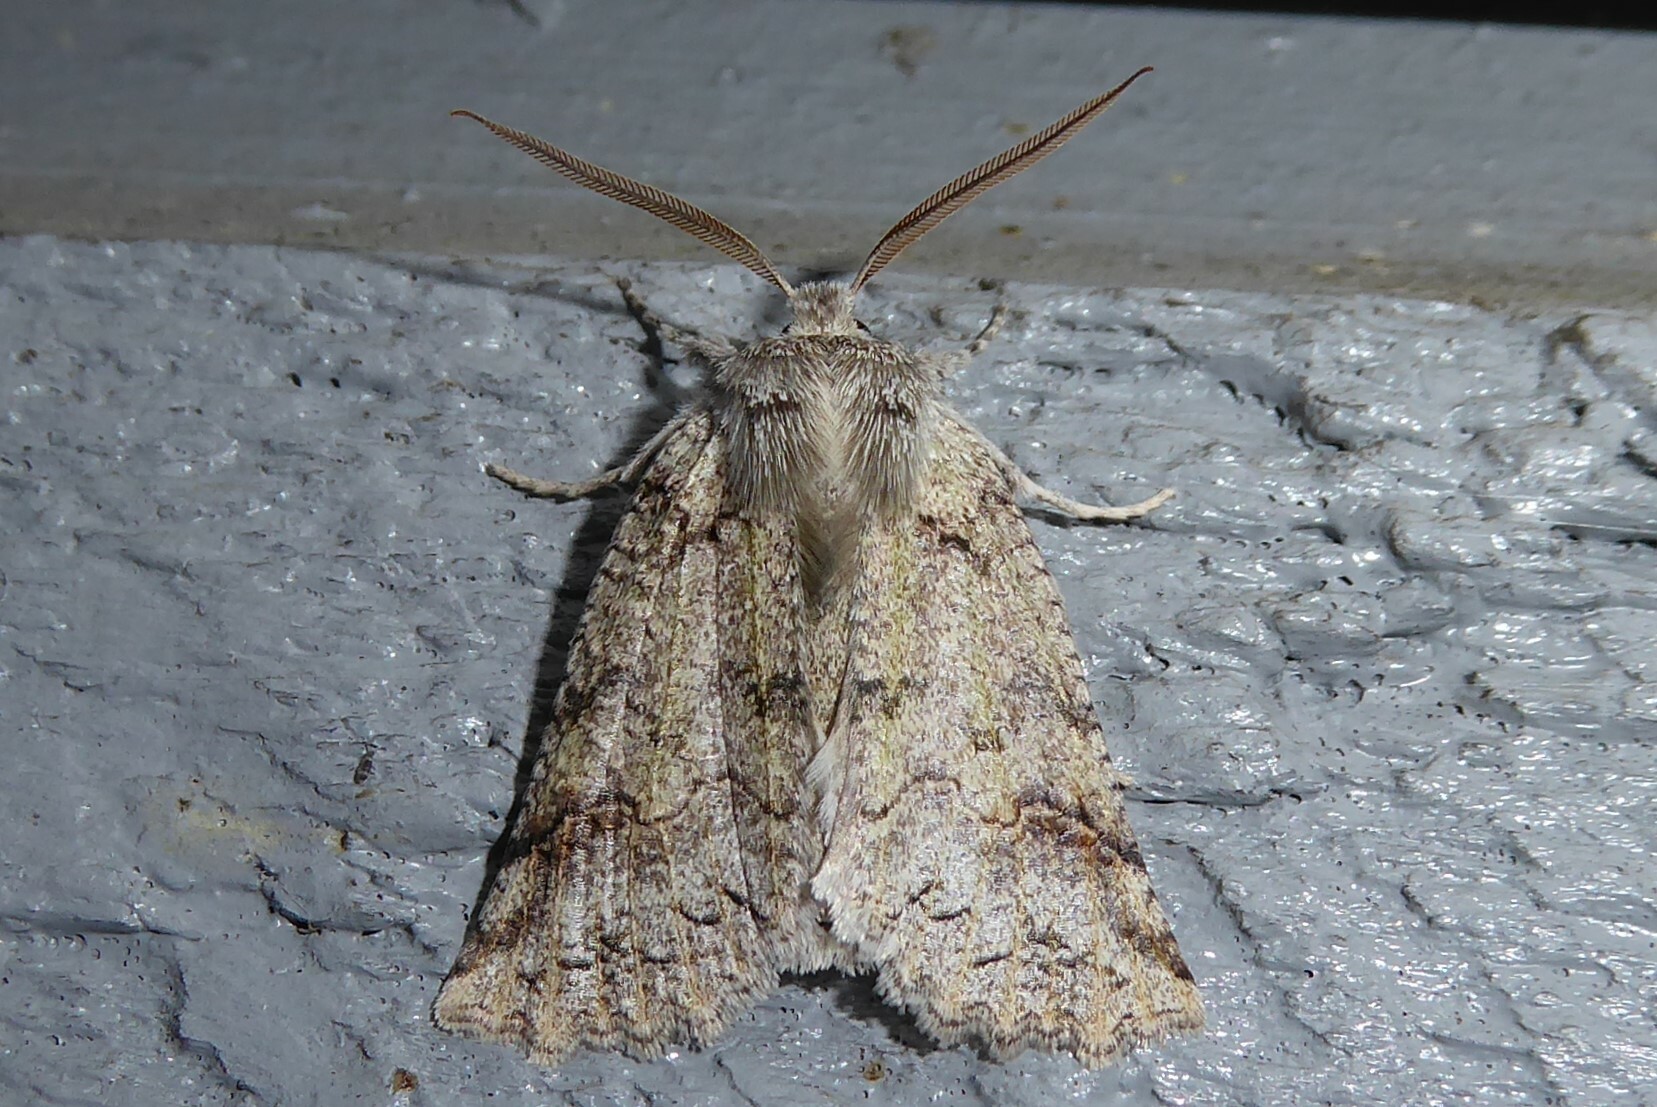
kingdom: Animalia
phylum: Arthropoda
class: Insecta
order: Lepidoptera
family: Geometridae
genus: Declana
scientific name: Declana floccosa
